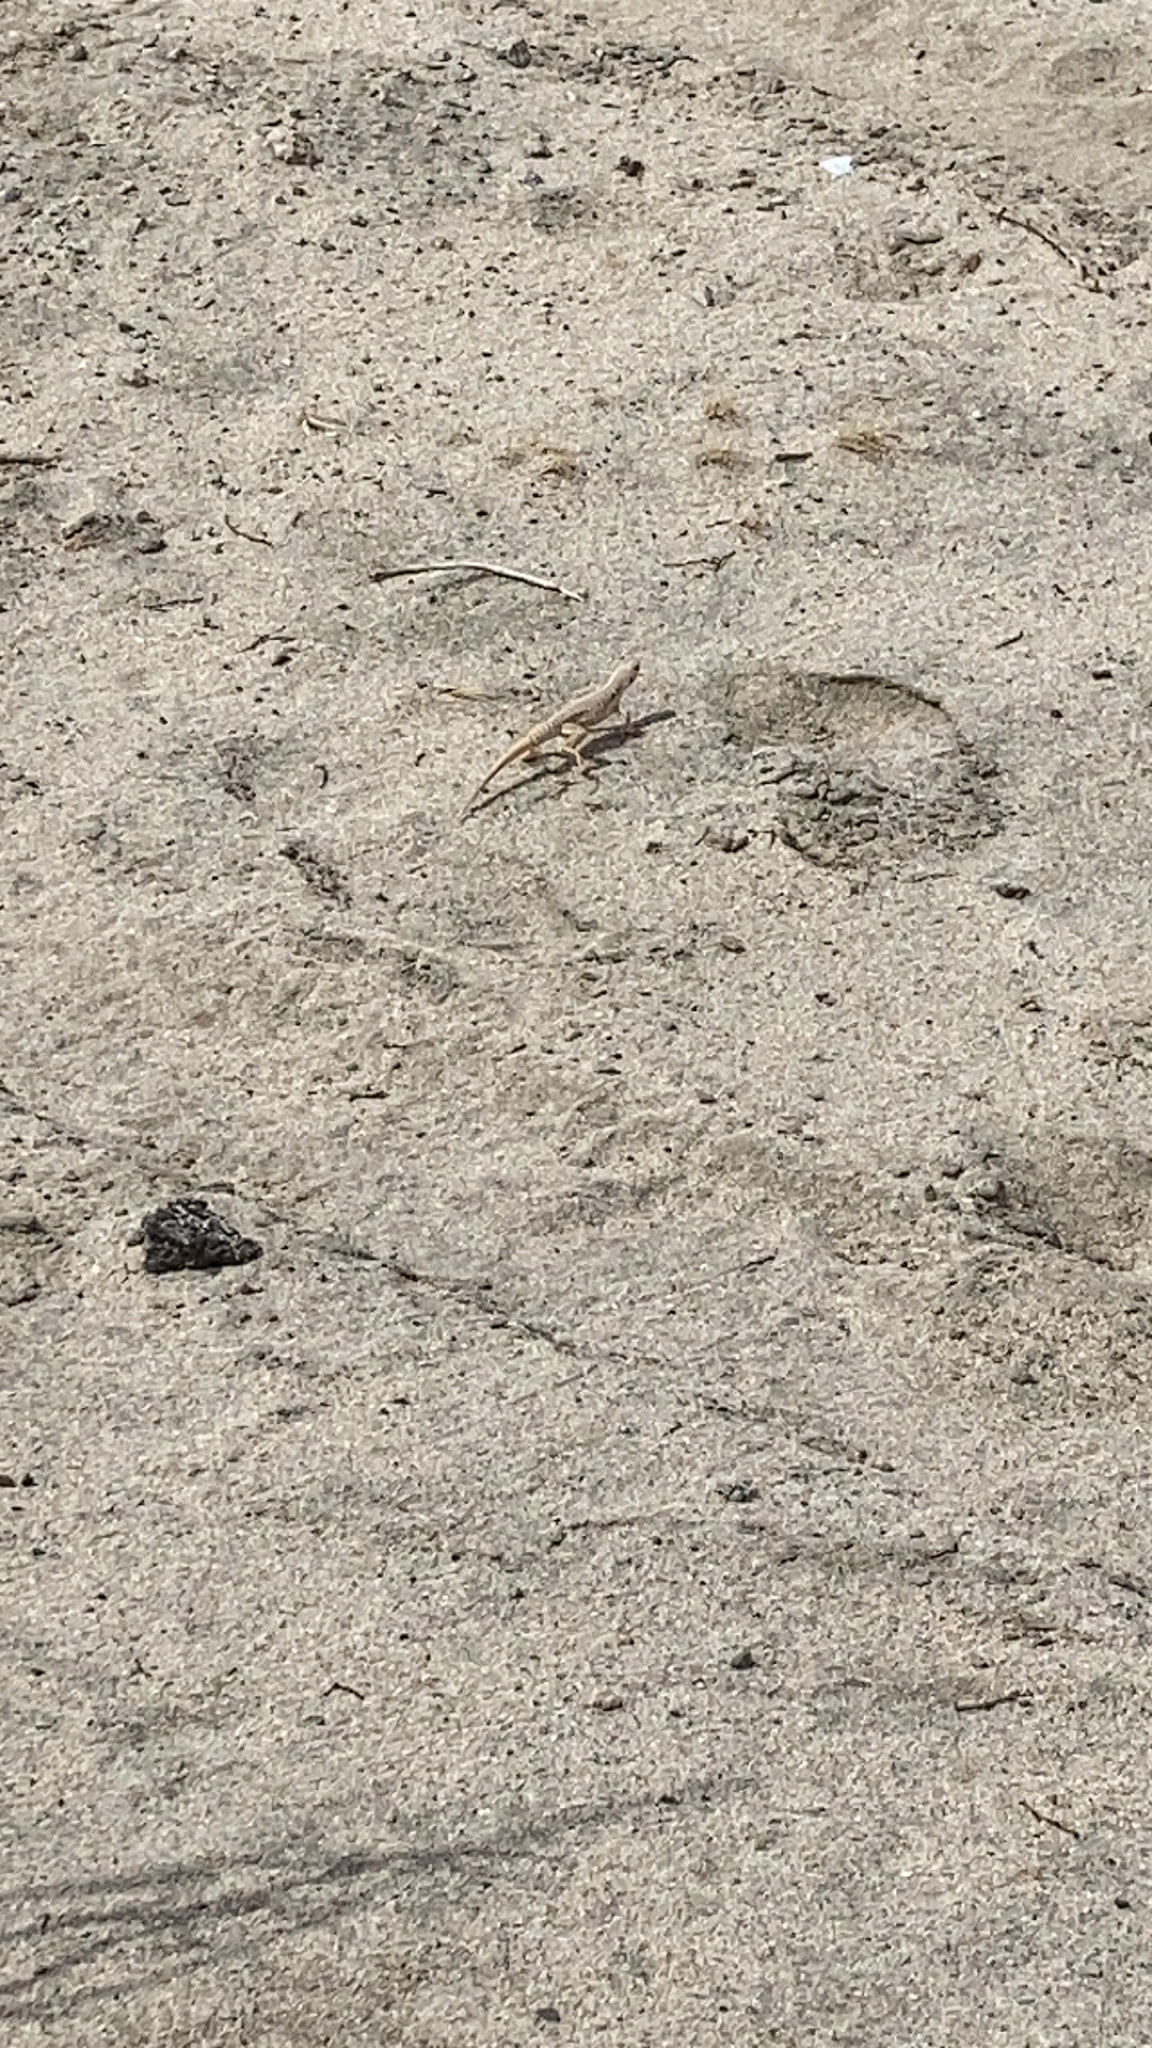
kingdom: Animalia
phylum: Chordata
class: Squamata
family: Iguanidae
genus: Dipsosaurus
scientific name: Dipsosaurus dorsalis
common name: Desert iguana
